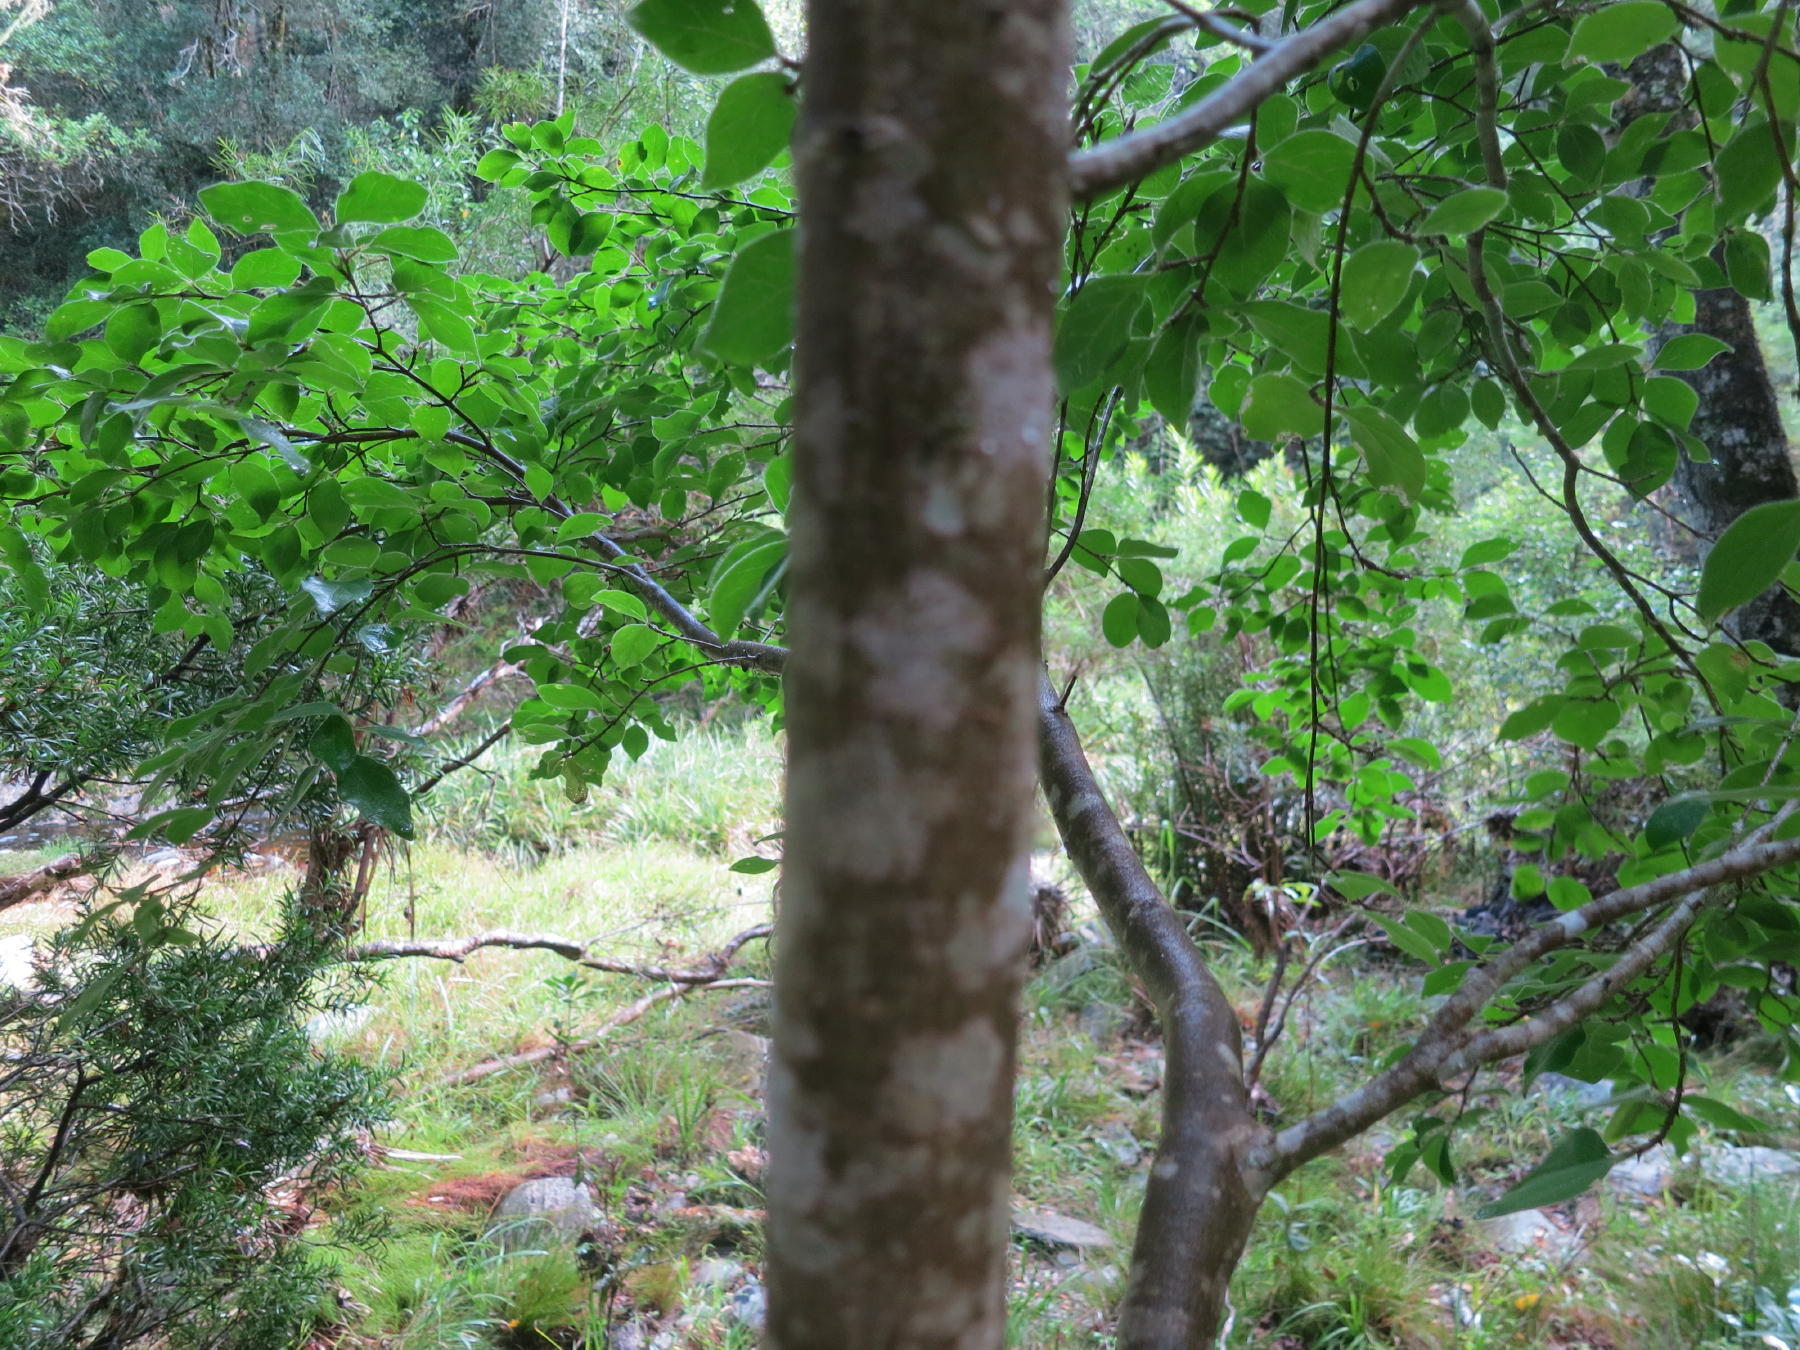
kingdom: Plantae
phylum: Tracheophyta
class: Magnoliopsida
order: Gentianales
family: Rubiaceae
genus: Afrocanthium
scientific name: Afrocanthium mundianum
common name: Rock-alder
